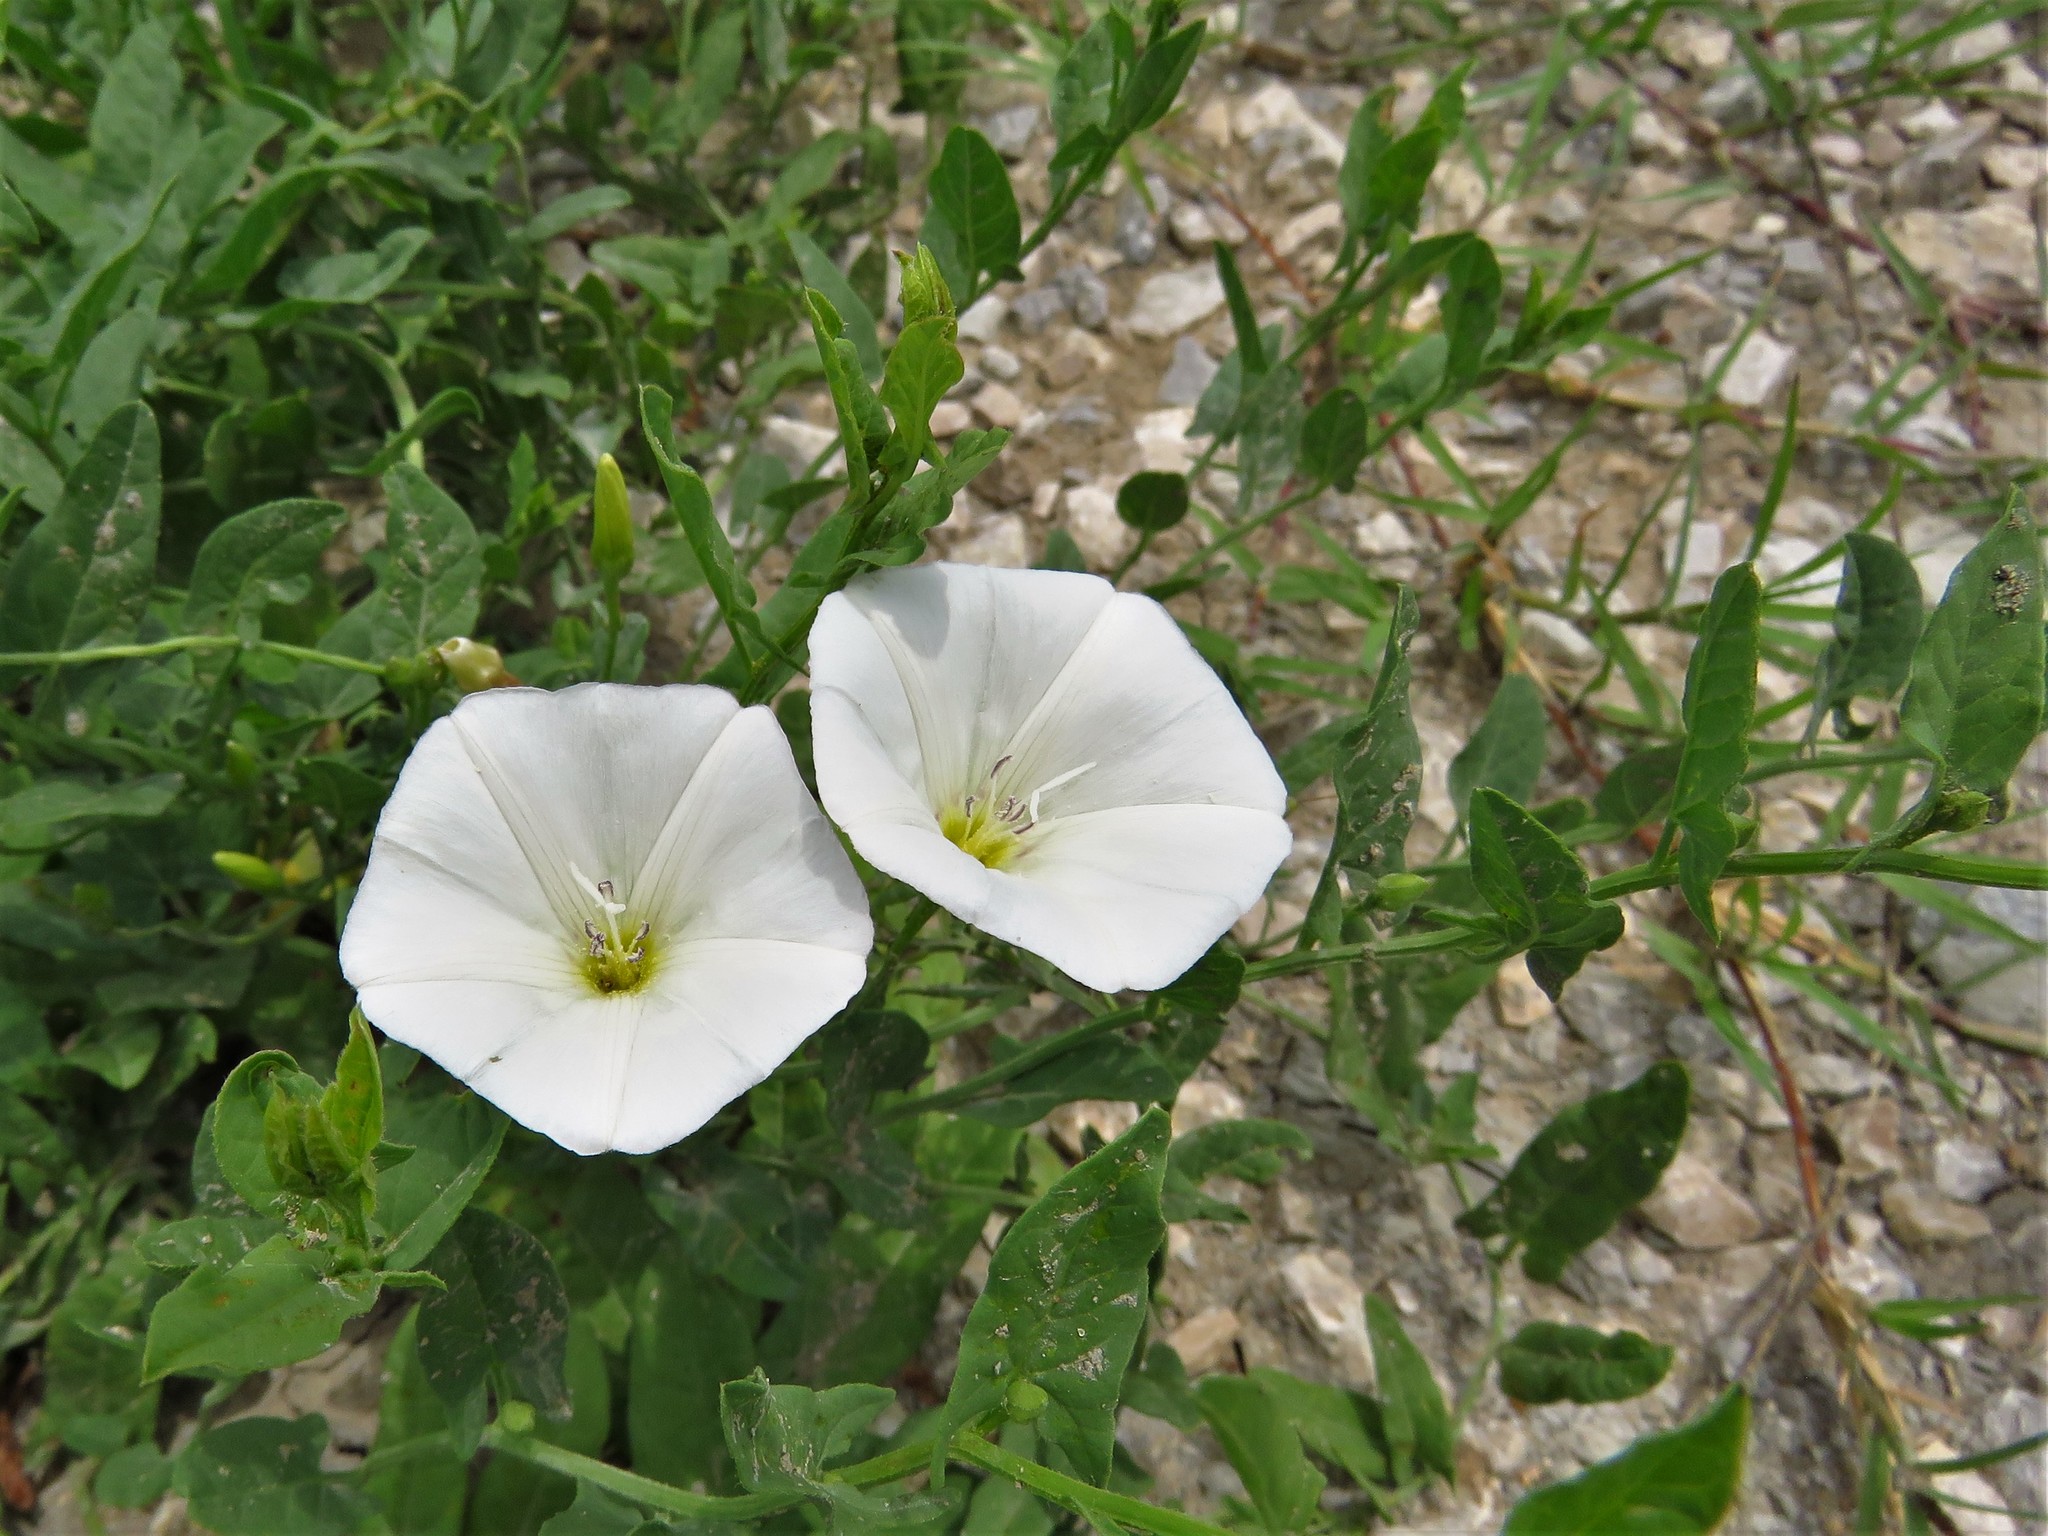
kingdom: Plantae
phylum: Tracheophyta
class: Magnoliopsida
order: Solanales
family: Convolvulaceae
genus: Convolvulus
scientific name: Convolvulus arvensis
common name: Field bindweed
